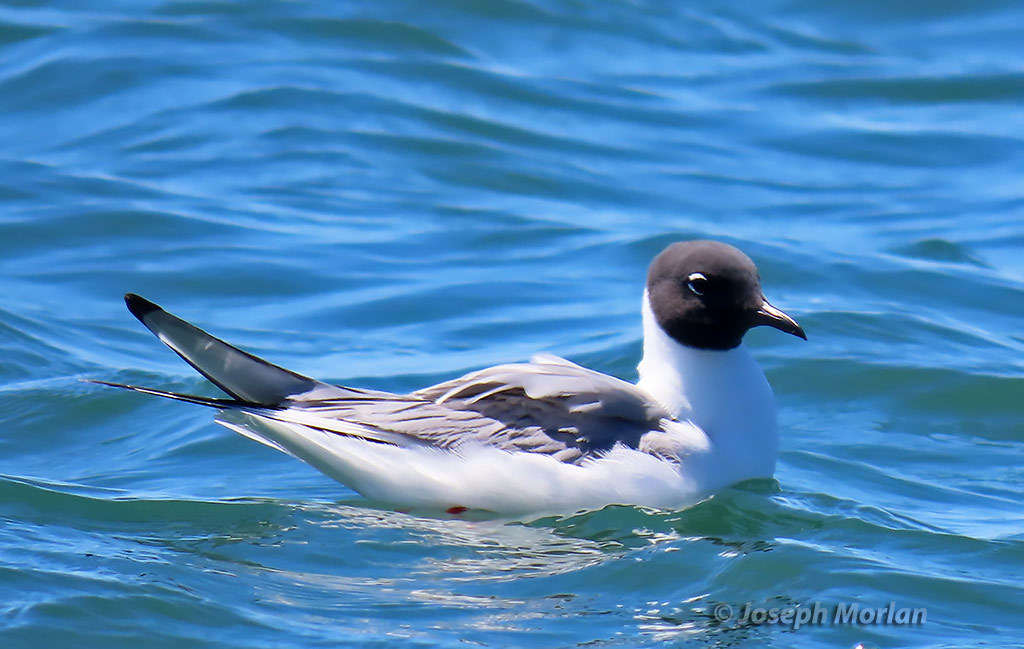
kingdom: Animalia
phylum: Chordata
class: Aves
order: Charadriiformes
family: Laridae
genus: Chroicocephalus
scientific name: Chroicocephalus philadelphia
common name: Bonaparte's gull
